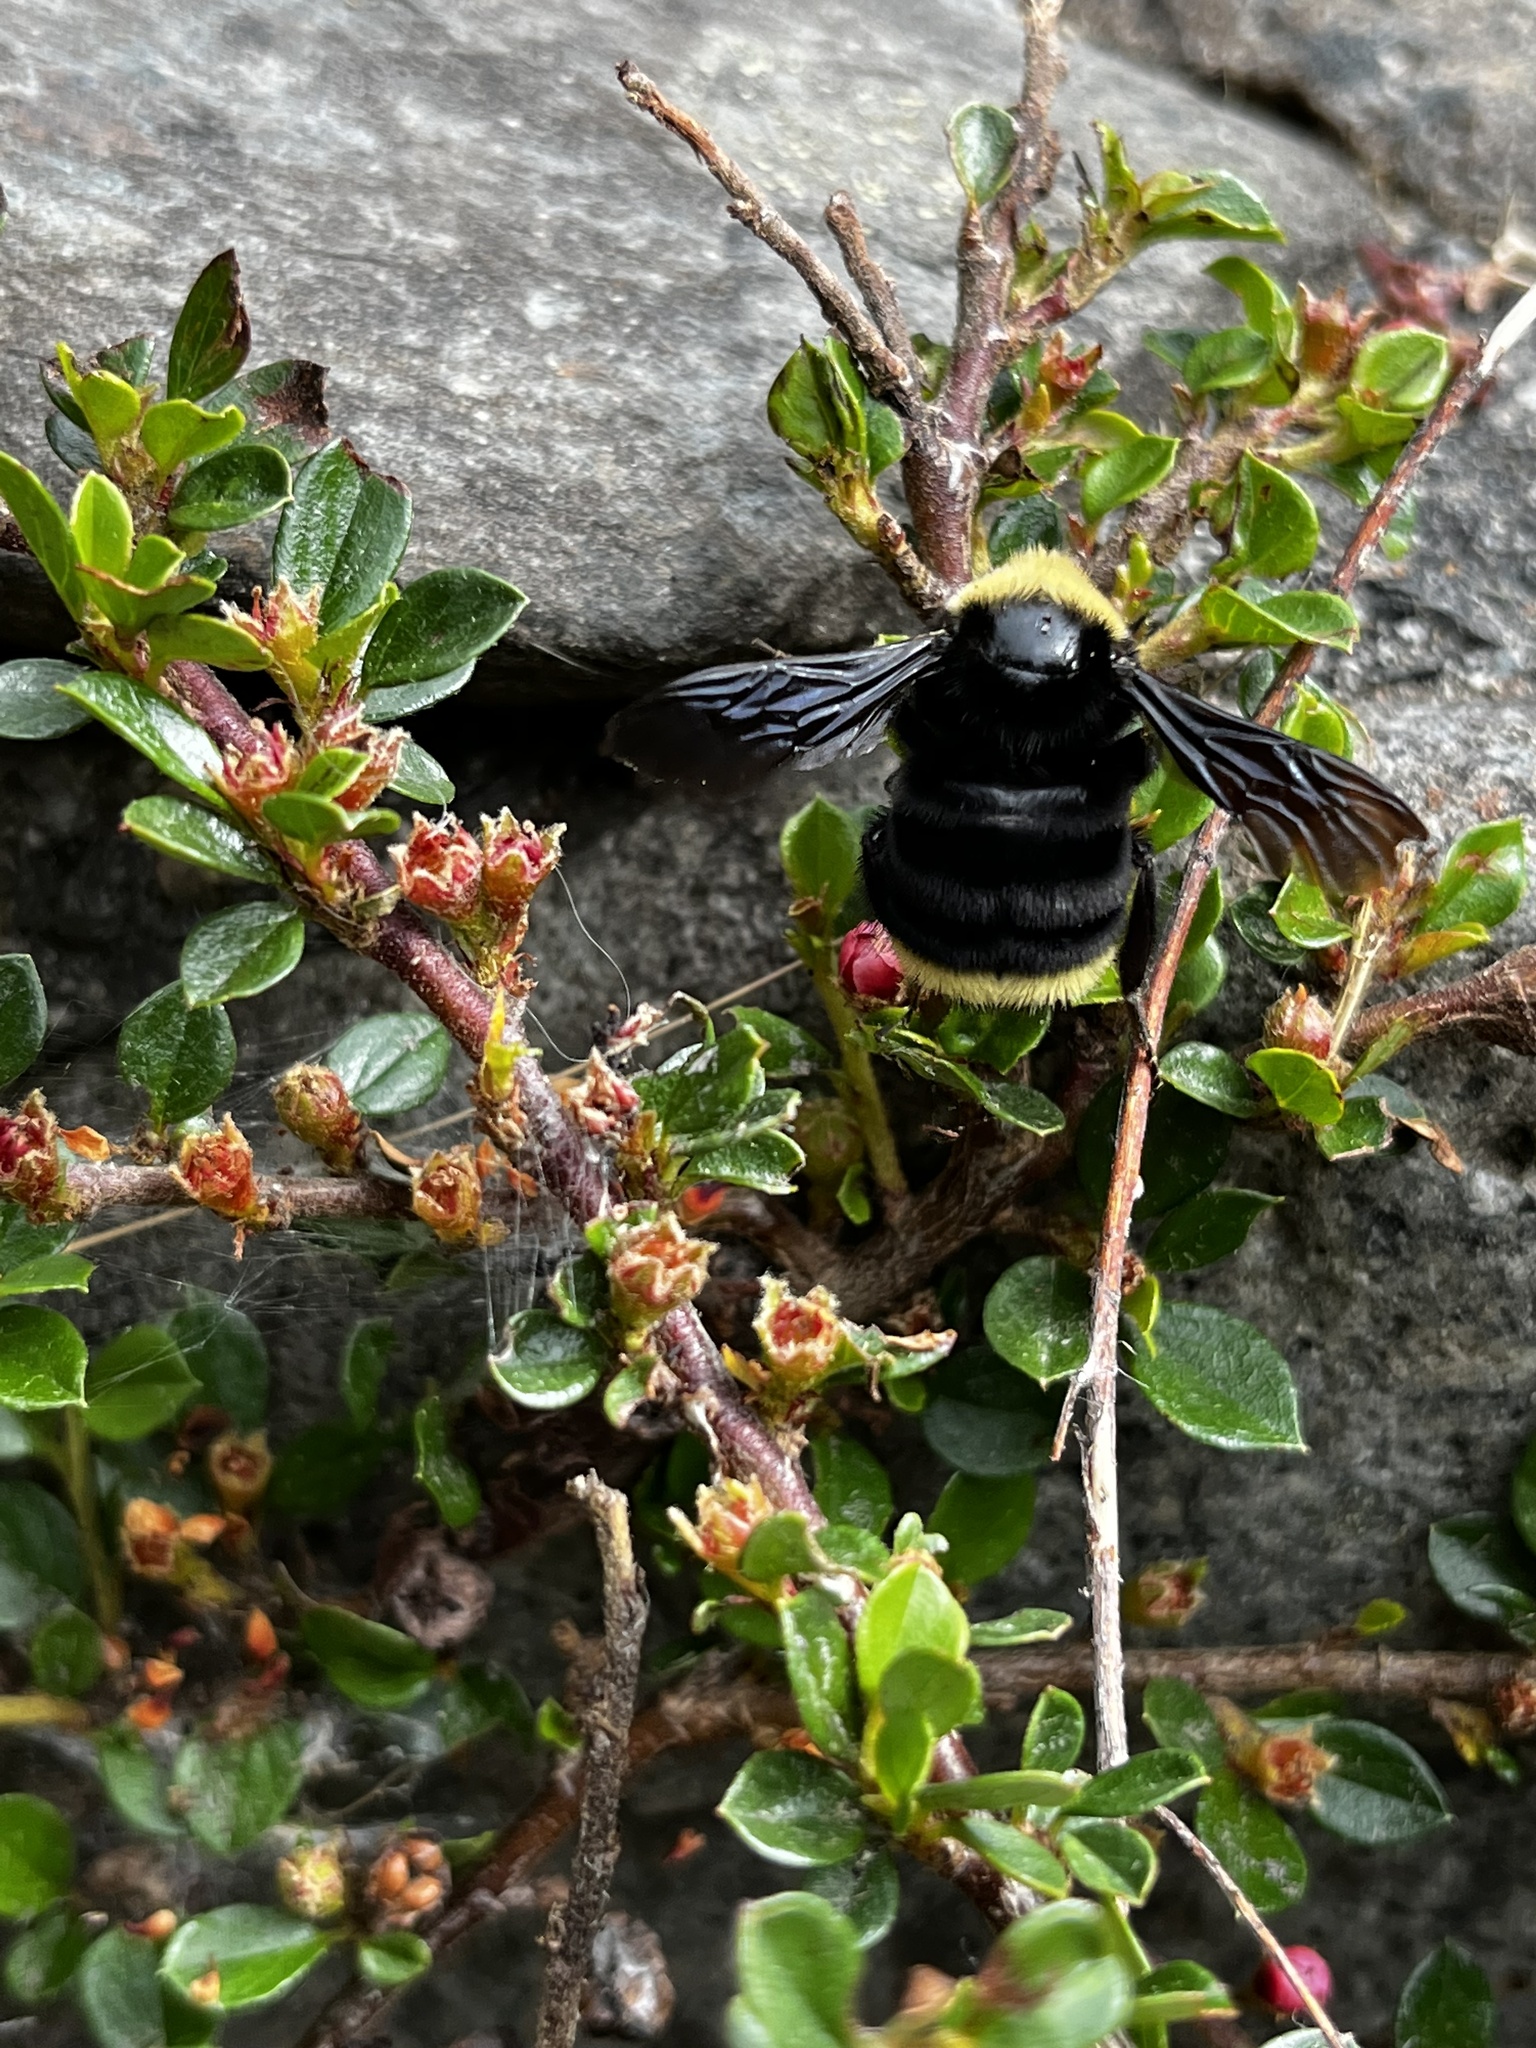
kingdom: Animalia
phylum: Arthropoda
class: Insecta
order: Hymenoptera
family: Apidae
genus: Bombus
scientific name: Bombus vosnesenskii
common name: Vosnesensky bumble bee
